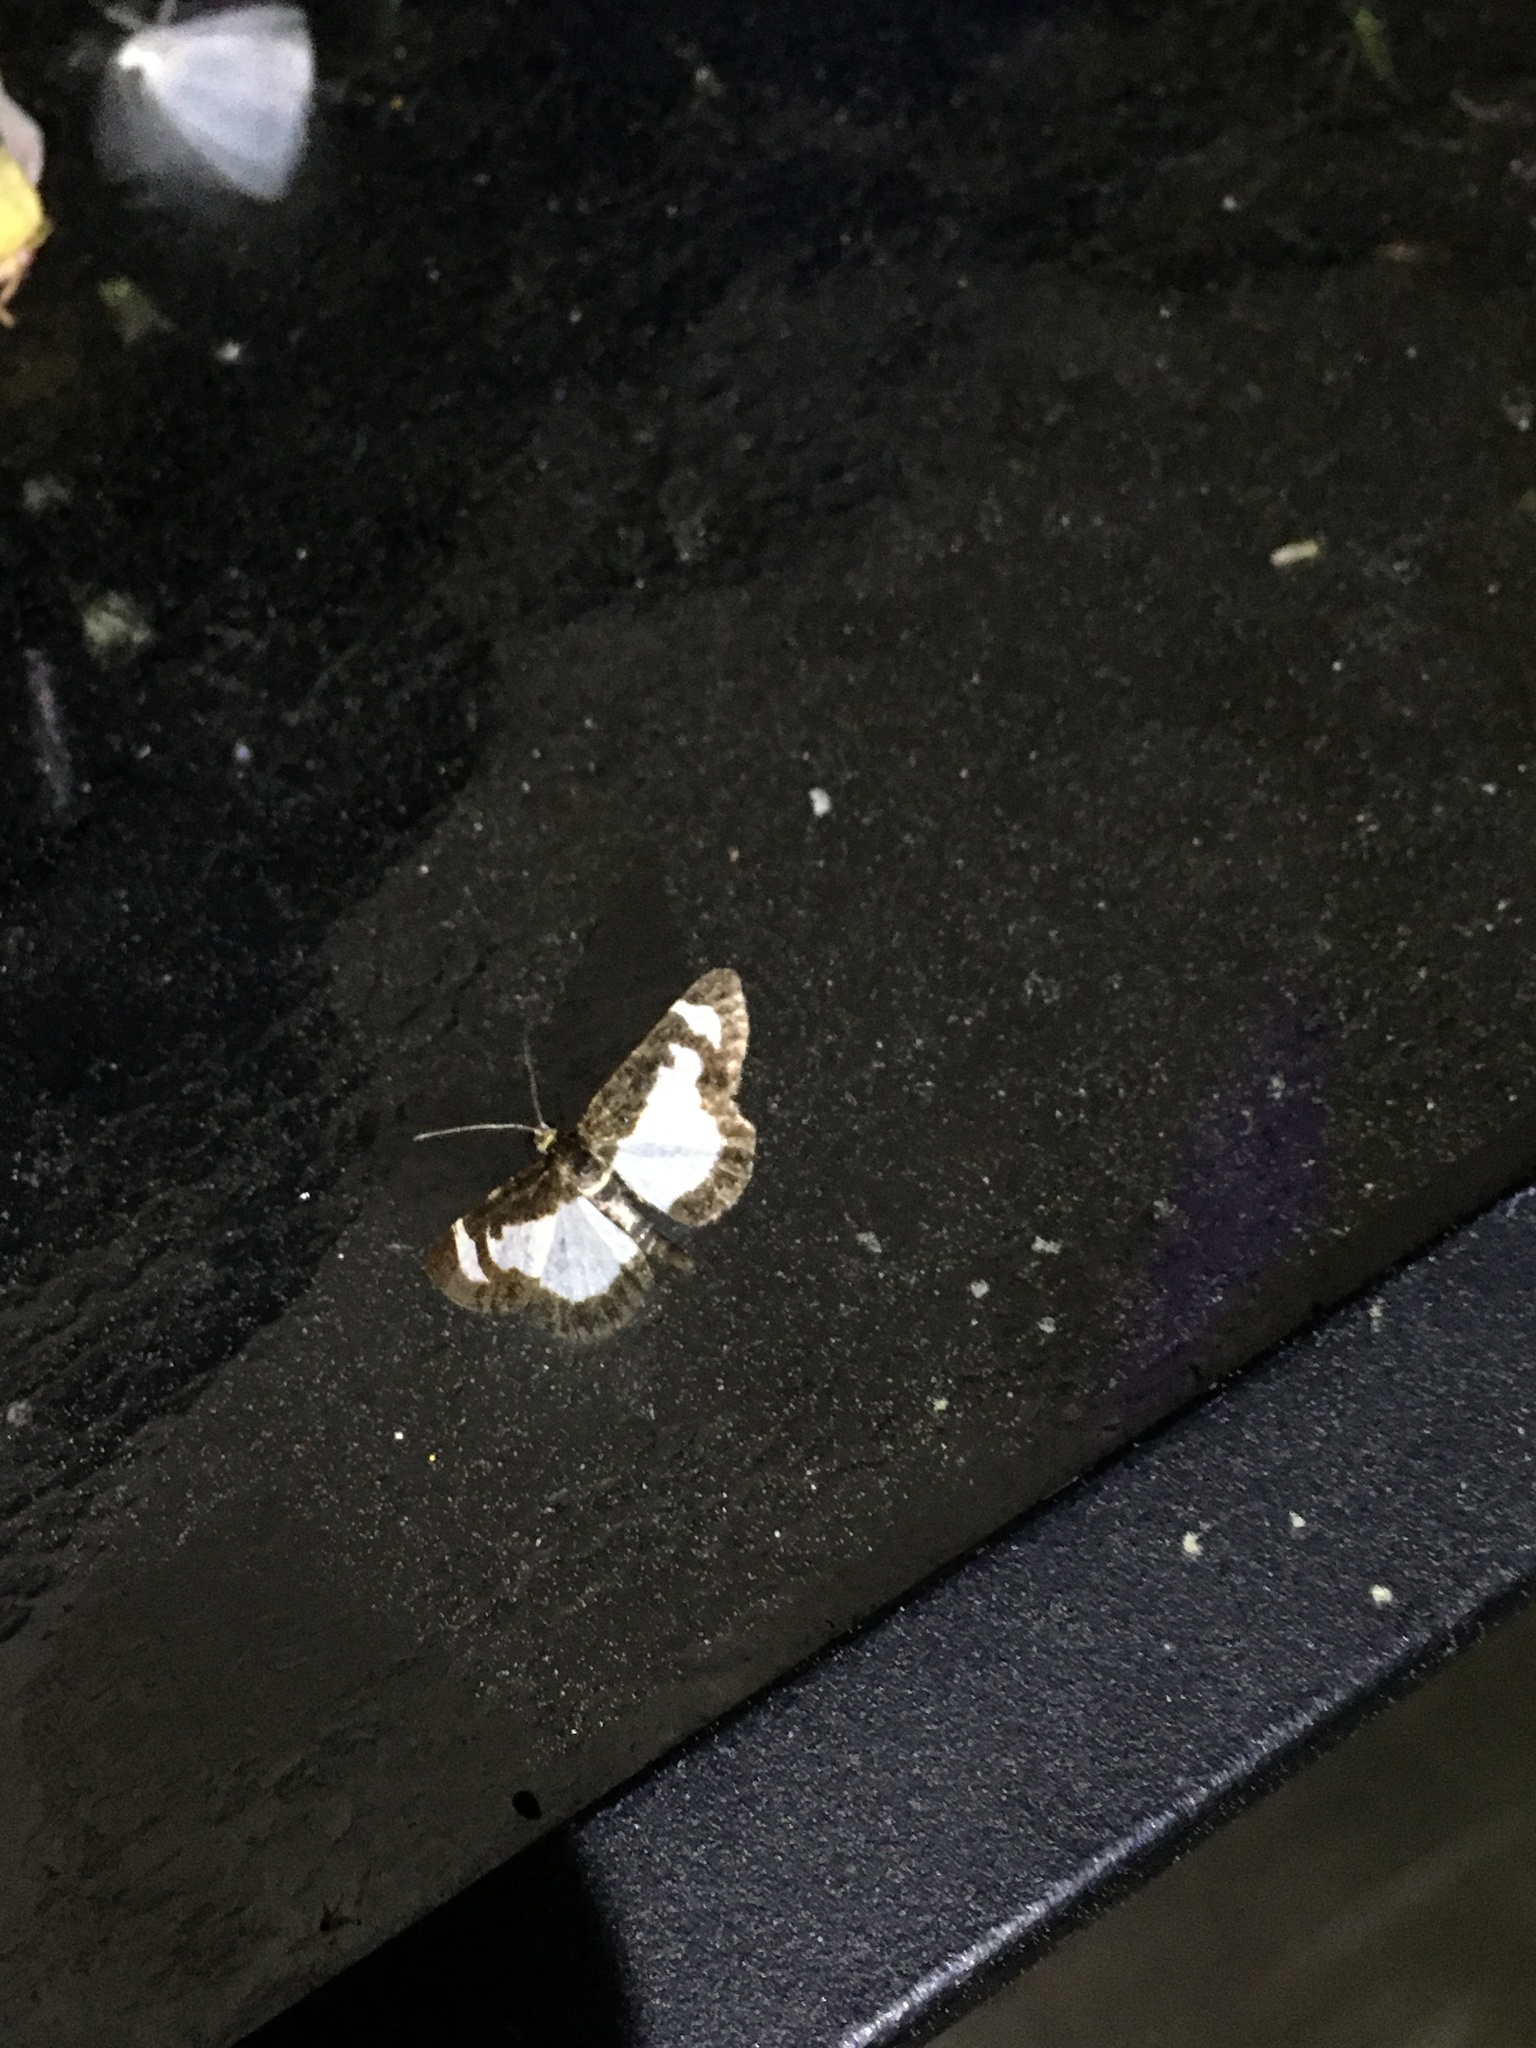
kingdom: Animalia
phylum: Arthropoda
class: Insecta
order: Lepidoptera
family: Geometridae
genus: Heliomata
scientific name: Heliomata cycladata
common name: Common spring moth
